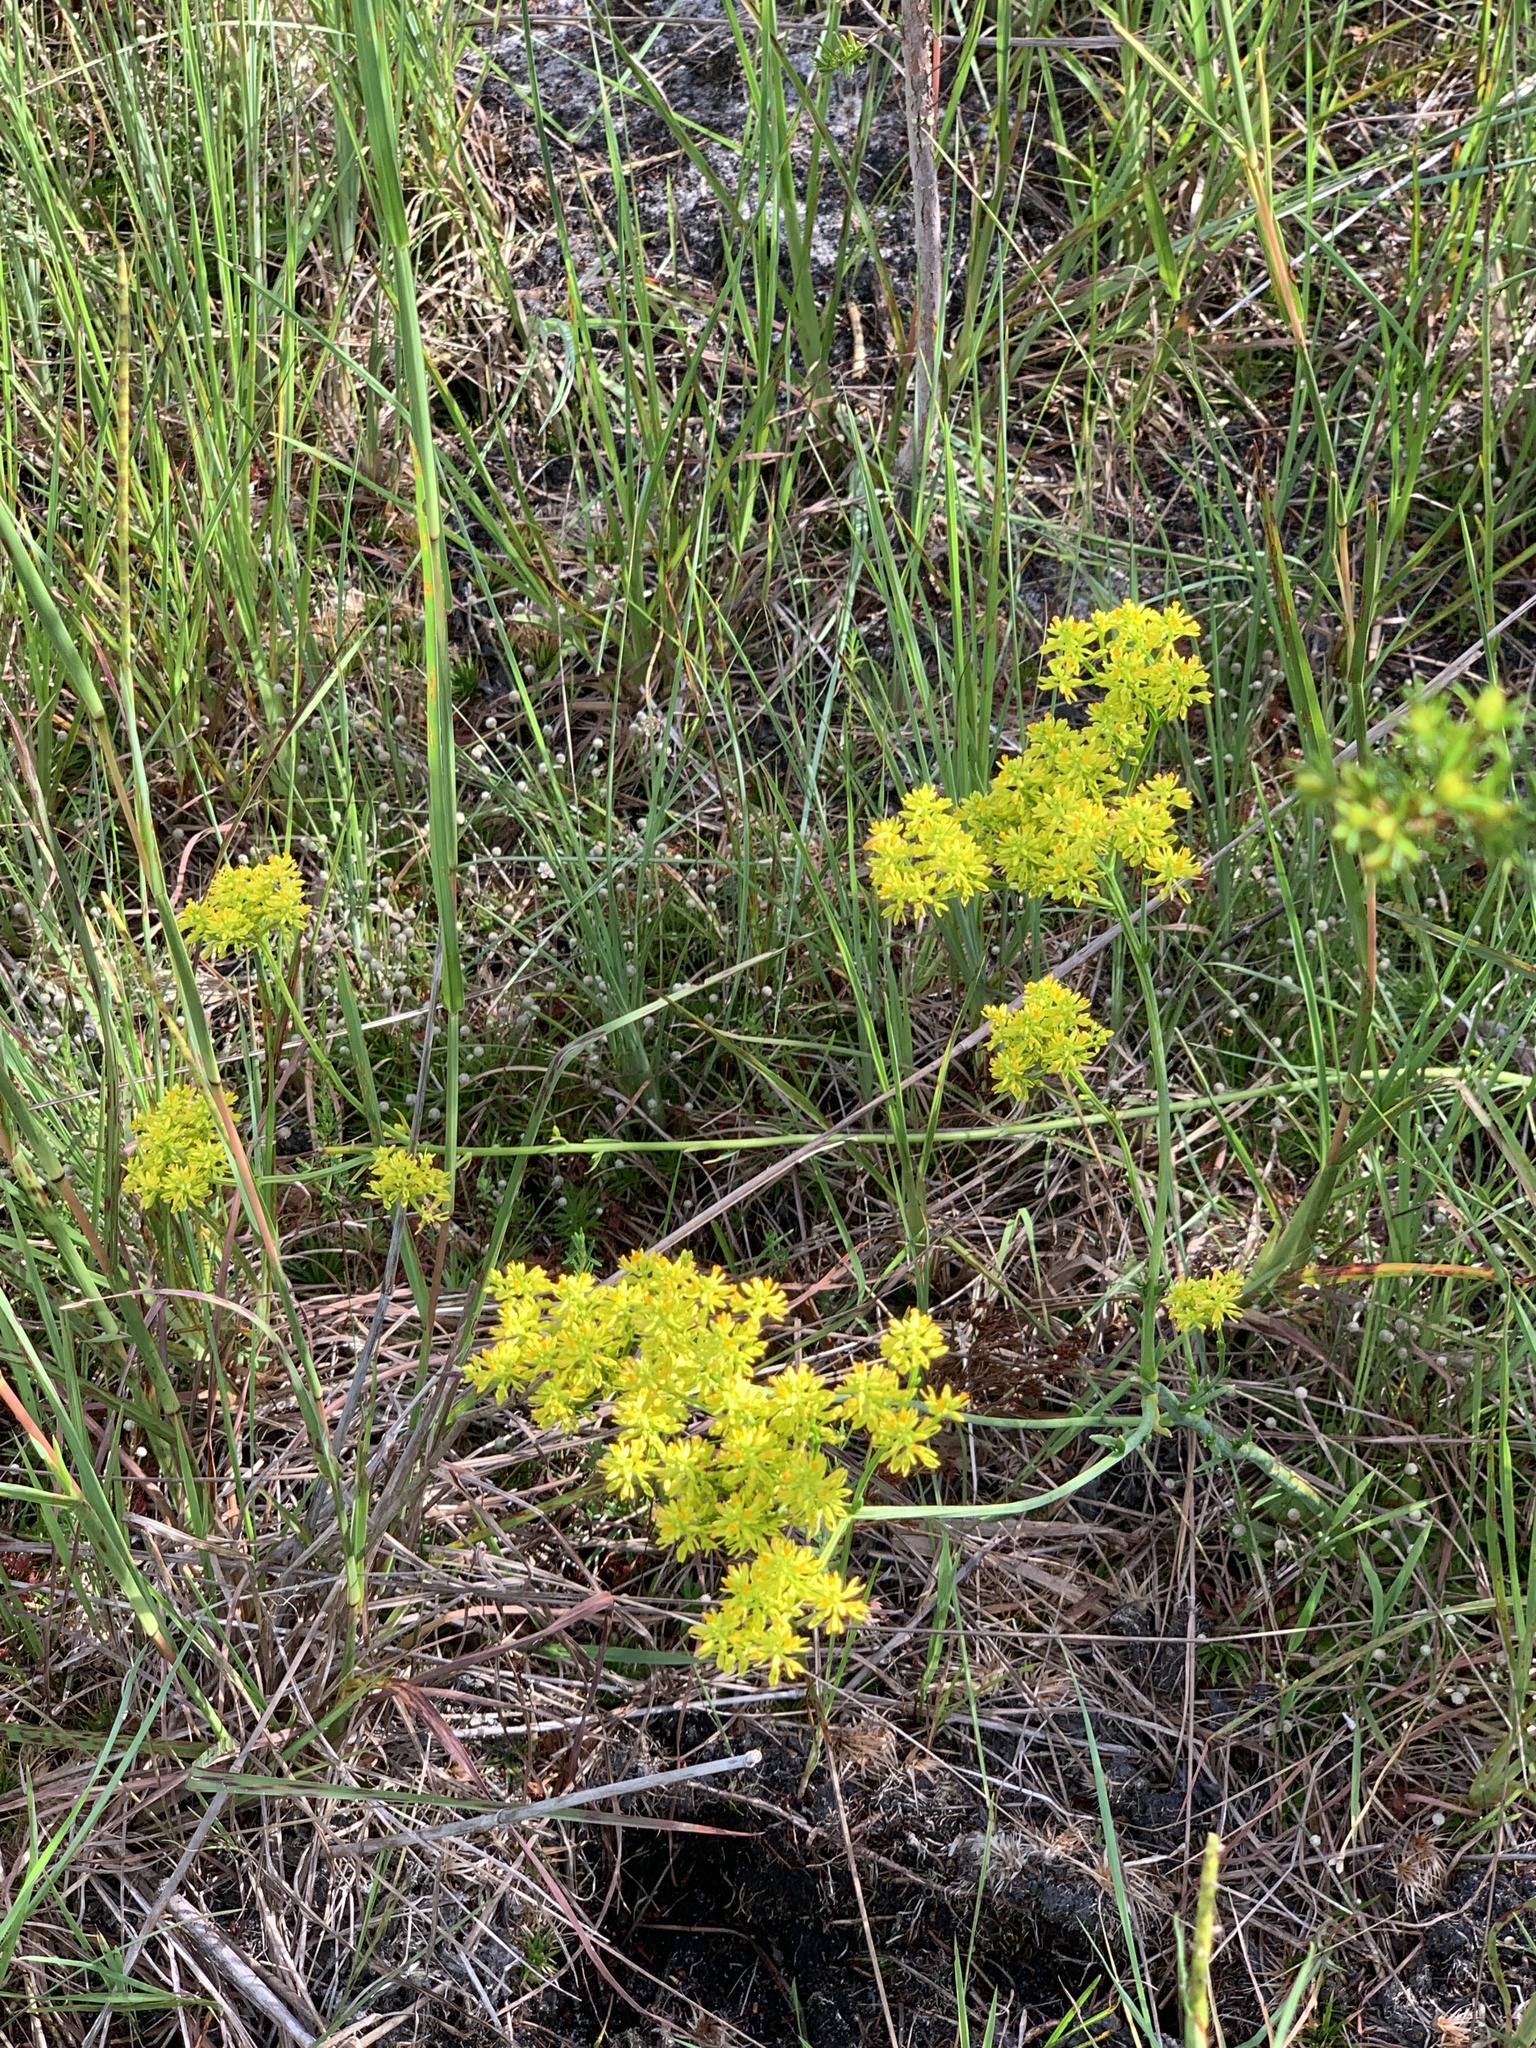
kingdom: Plantae
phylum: Tracheophyta
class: Magnoliopsida
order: Fabales
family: Polygalaceae
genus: Polygala
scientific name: Polygala cymosa
